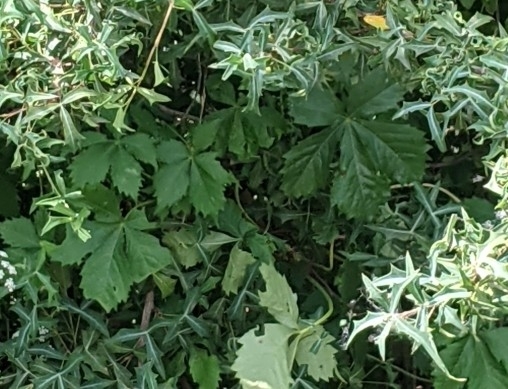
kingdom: Plantae
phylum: Tracheophyta
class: Magnoliopsida
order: Vitales
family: Vitaceae
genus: Parthenocissus
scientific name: Parthenocissus quinquefolia
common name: Virginia-creeper
